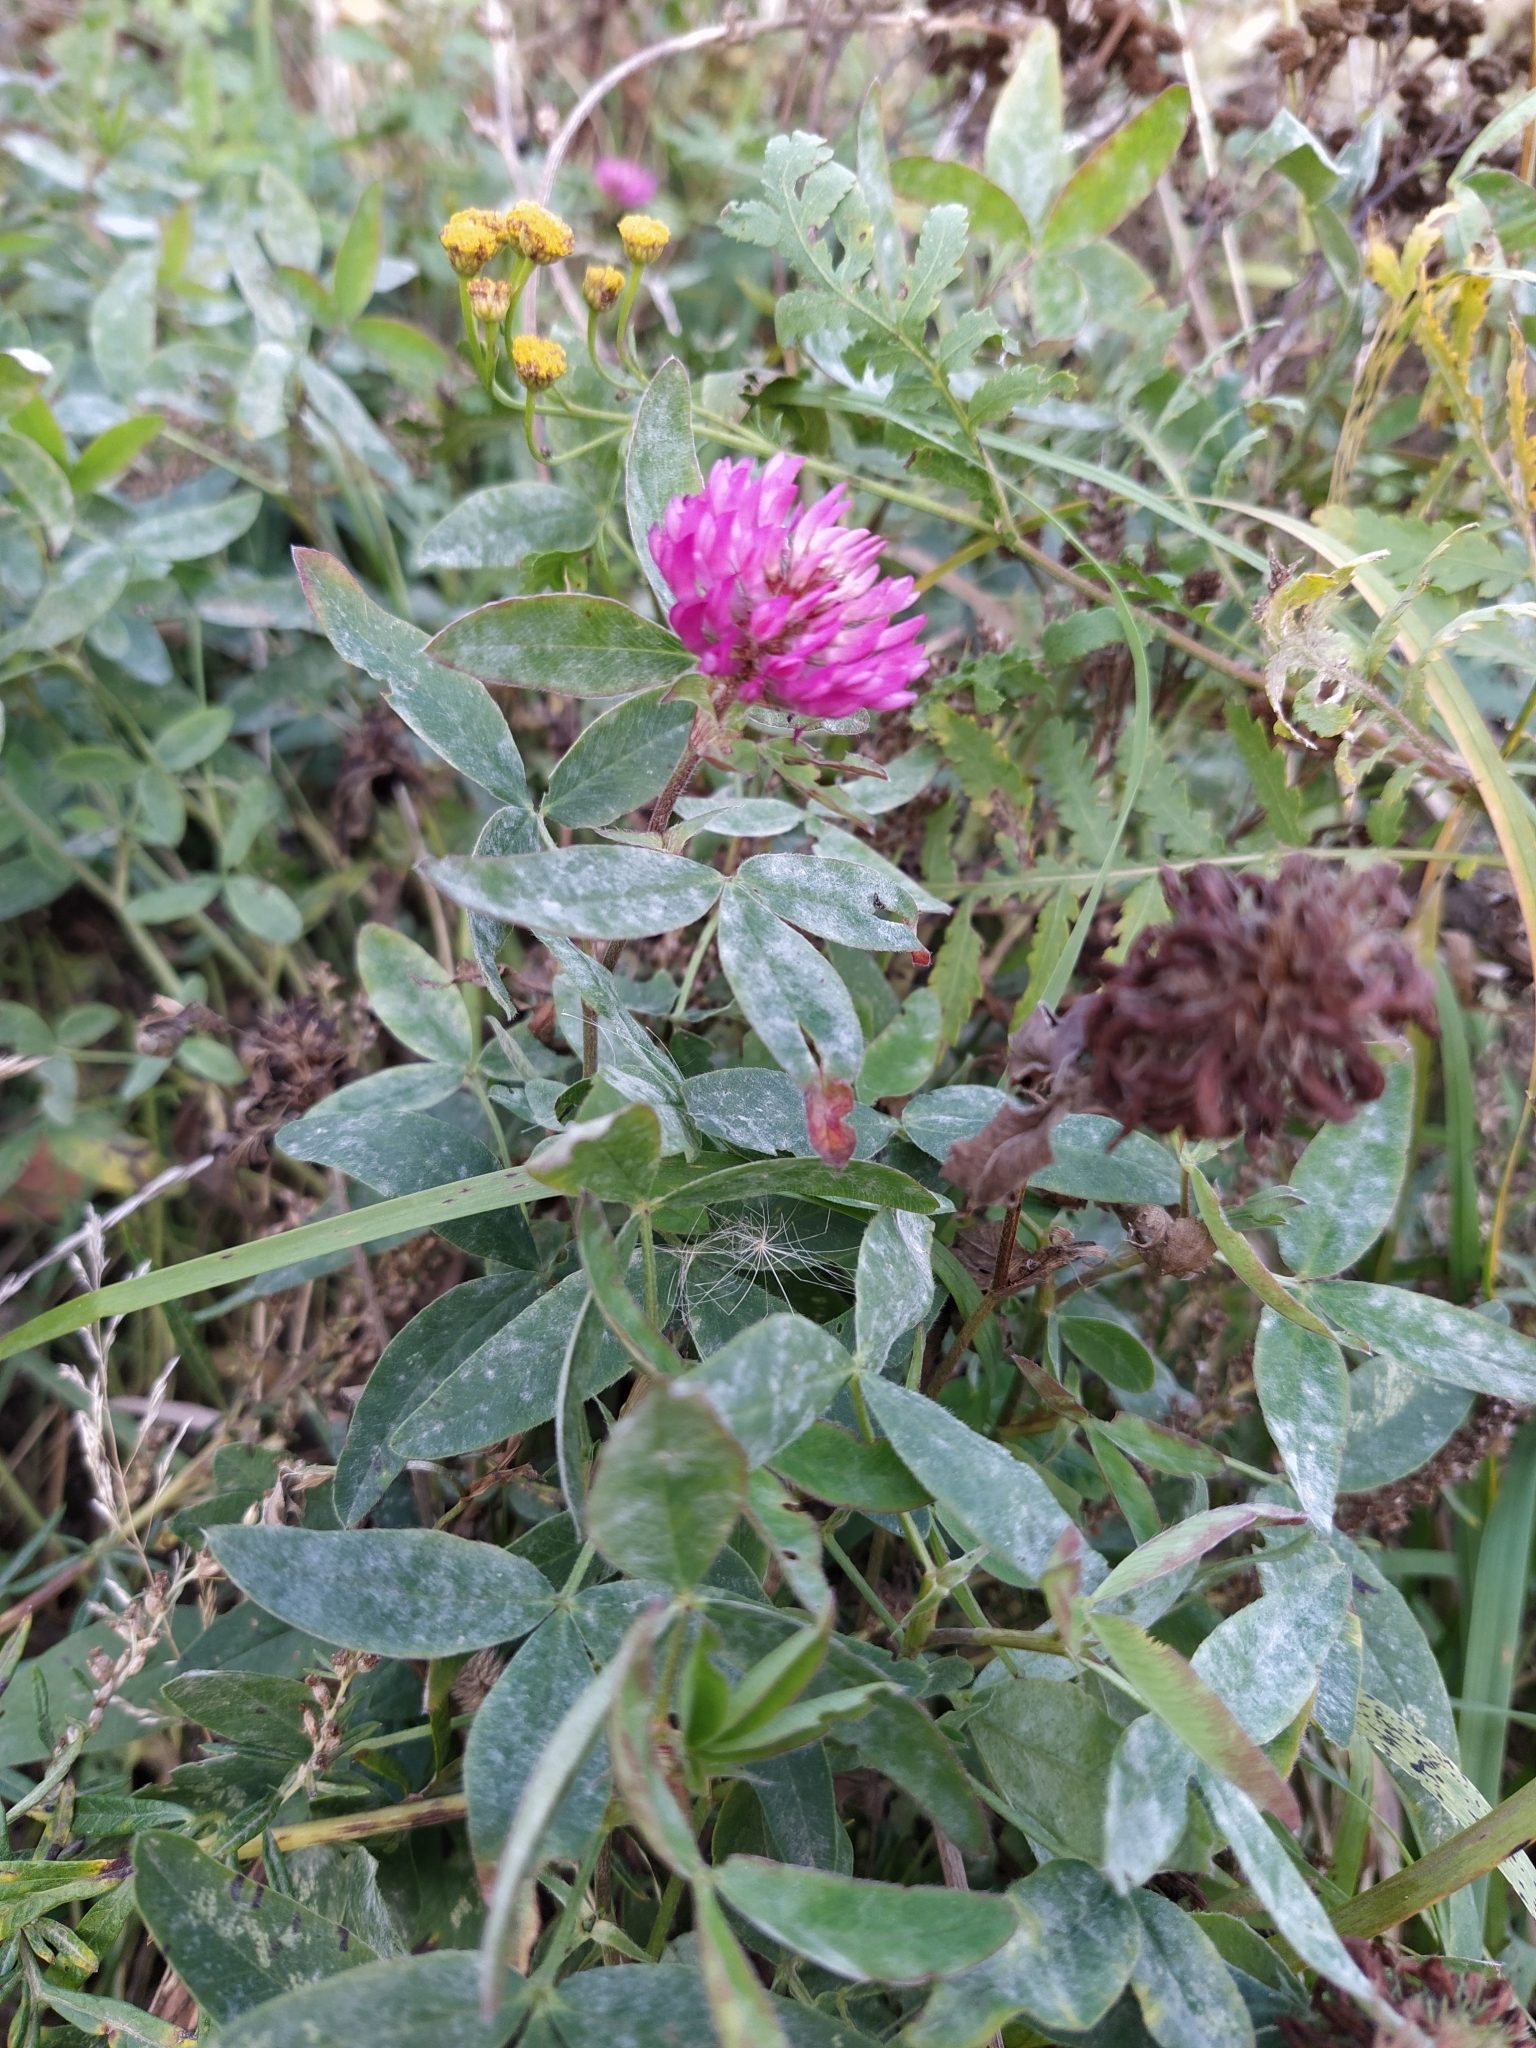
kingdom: Plantae
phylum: Tracheophyta
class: Magnoliopsida
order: Fabales
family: Fabaceae
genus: Trifolium
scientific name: Trifolium medium
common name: Zigzag clover
